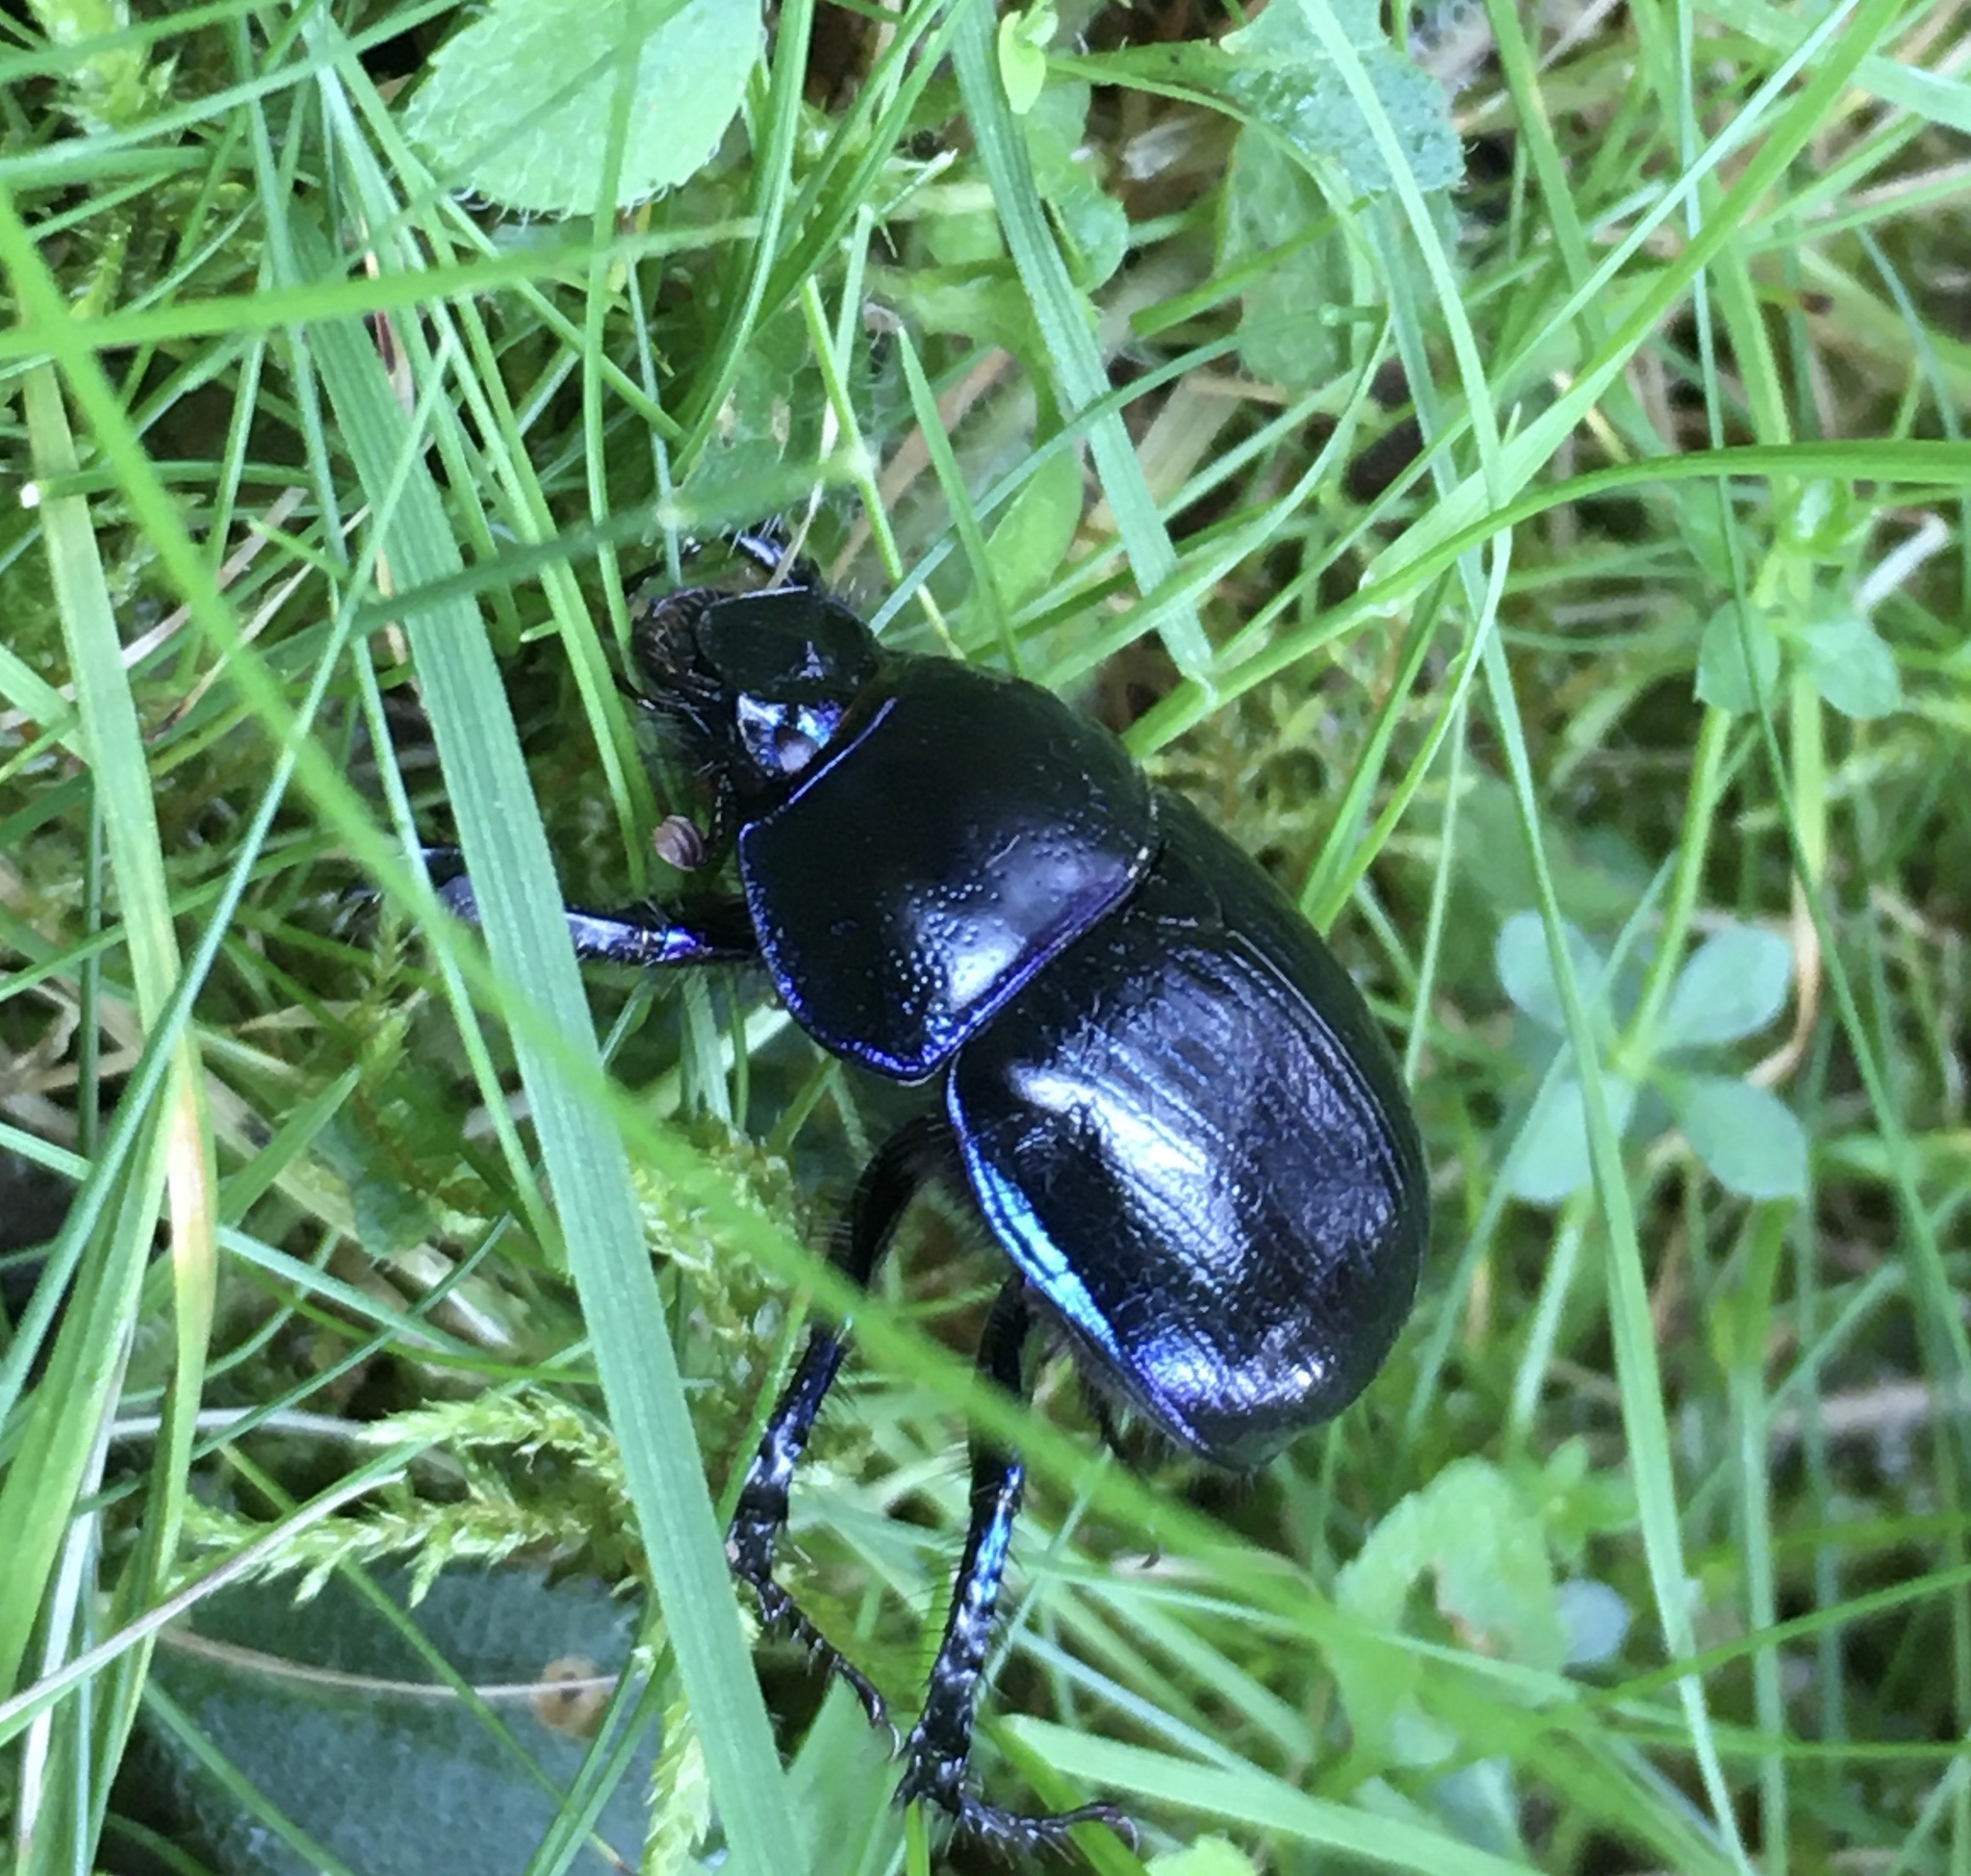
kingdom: Animalia
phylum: Arthropoda
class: Insecta
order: Coleoptera
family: Geotrupidae
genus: Anoplotrupes
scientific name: Anoplotrupes stercorosus
